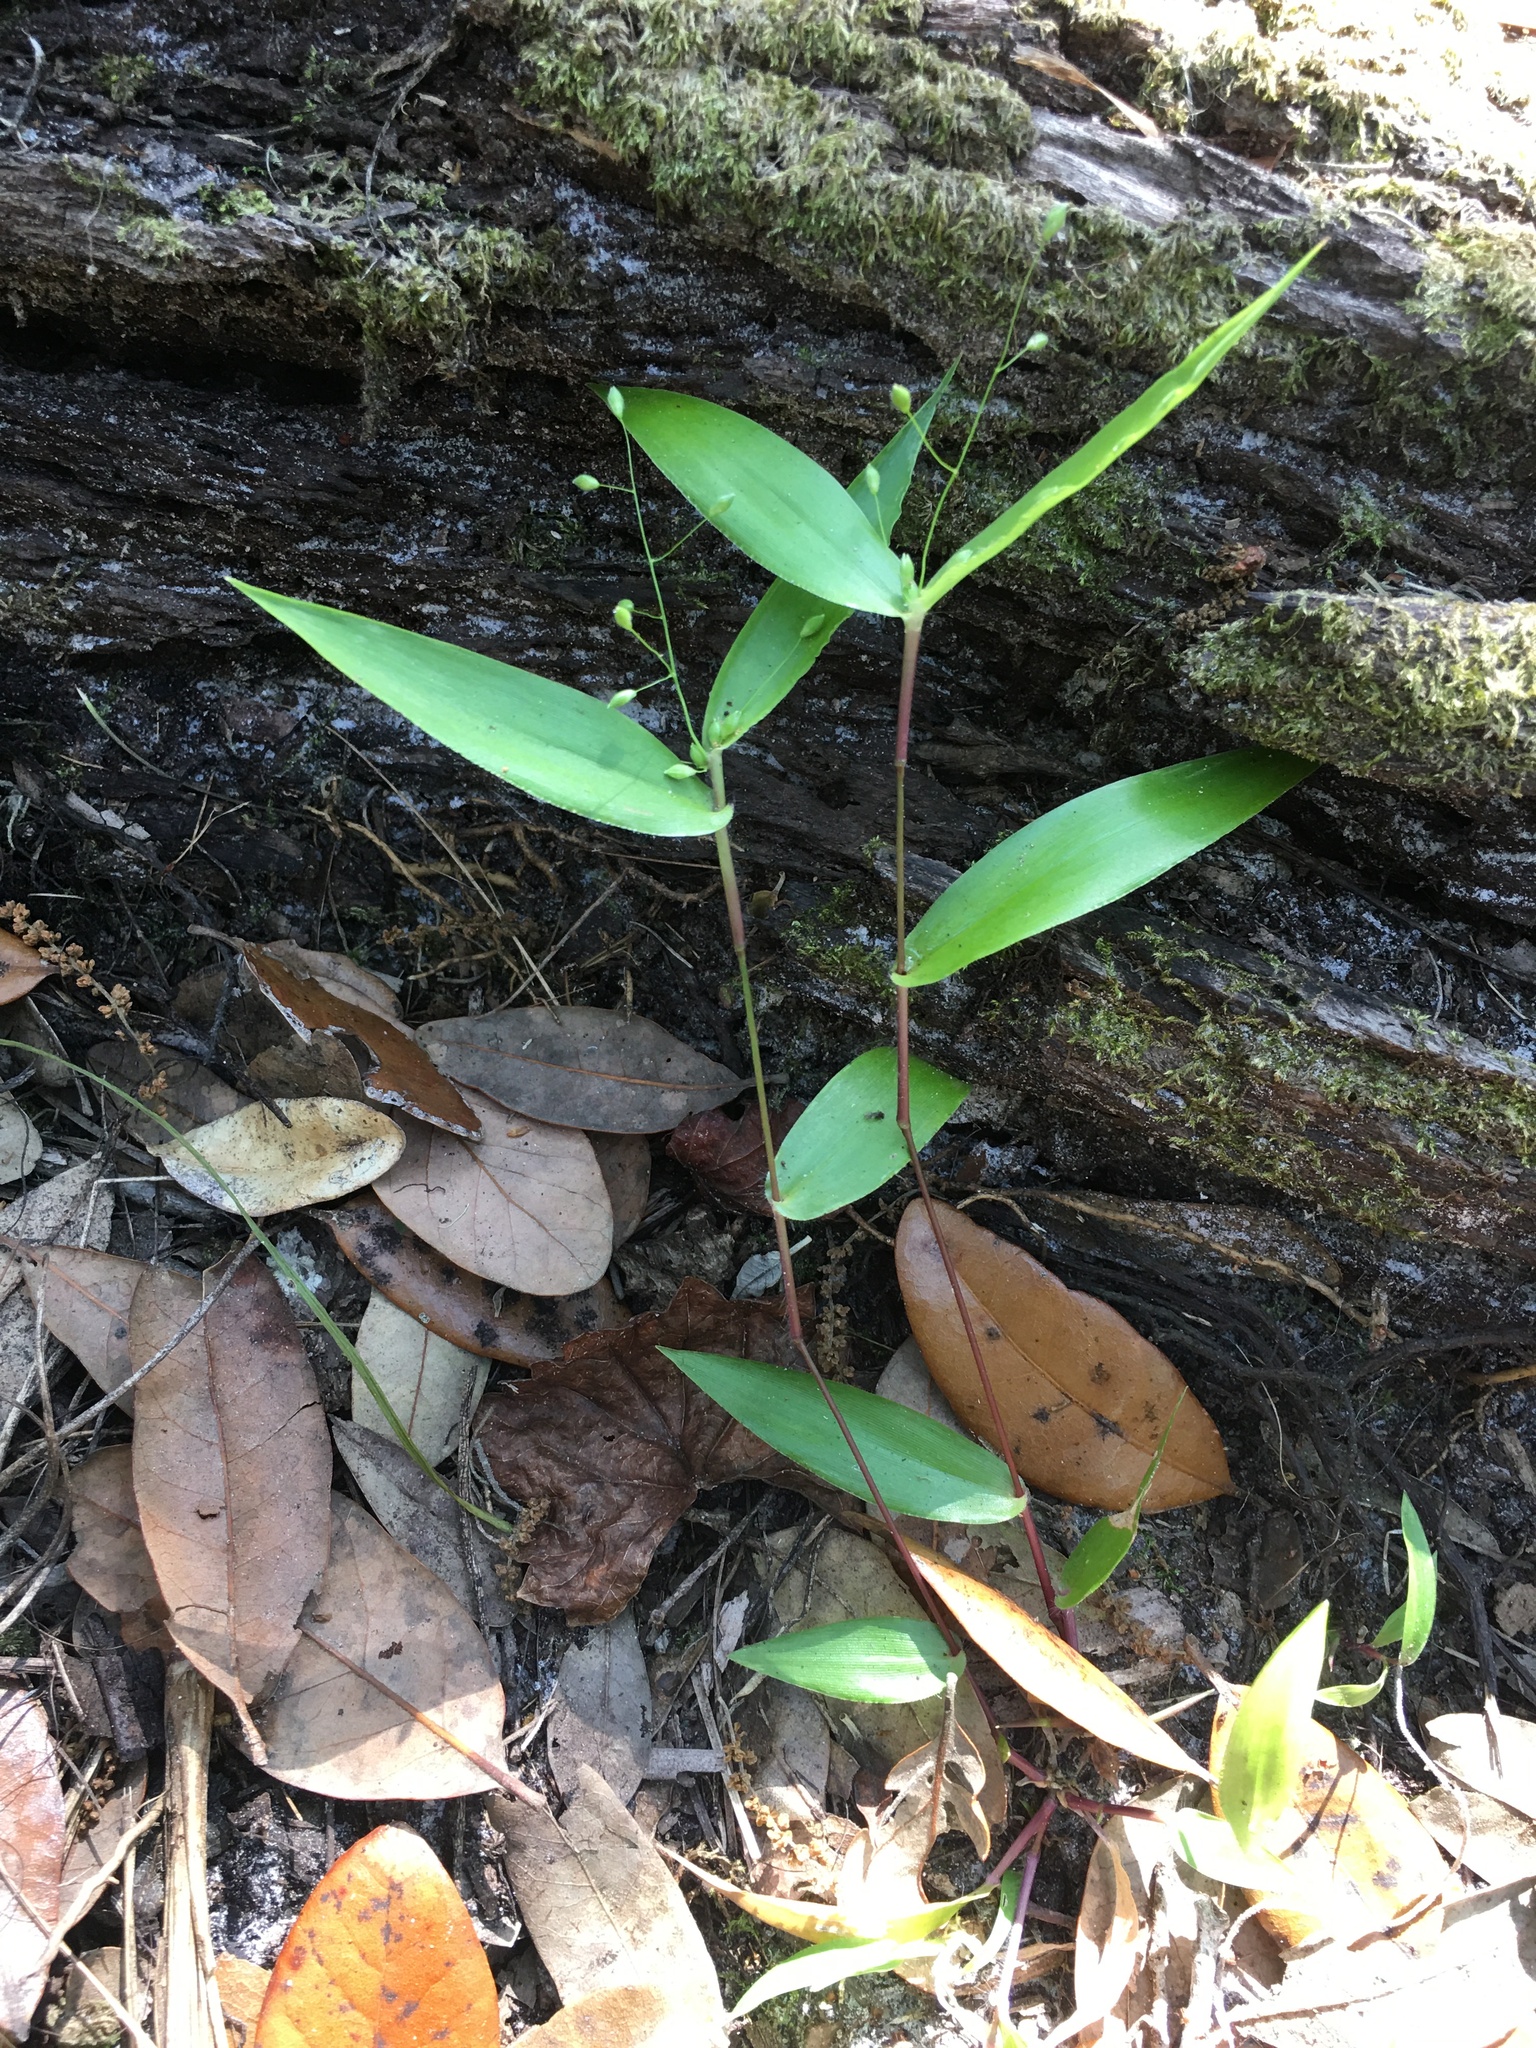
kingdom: Plantae
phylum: Tracheophyta
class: Liliopsida
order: Poales
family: Poaceae
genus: Dichanthelium
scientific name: Dichanthelium commutatum
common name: Variable witchgrass
